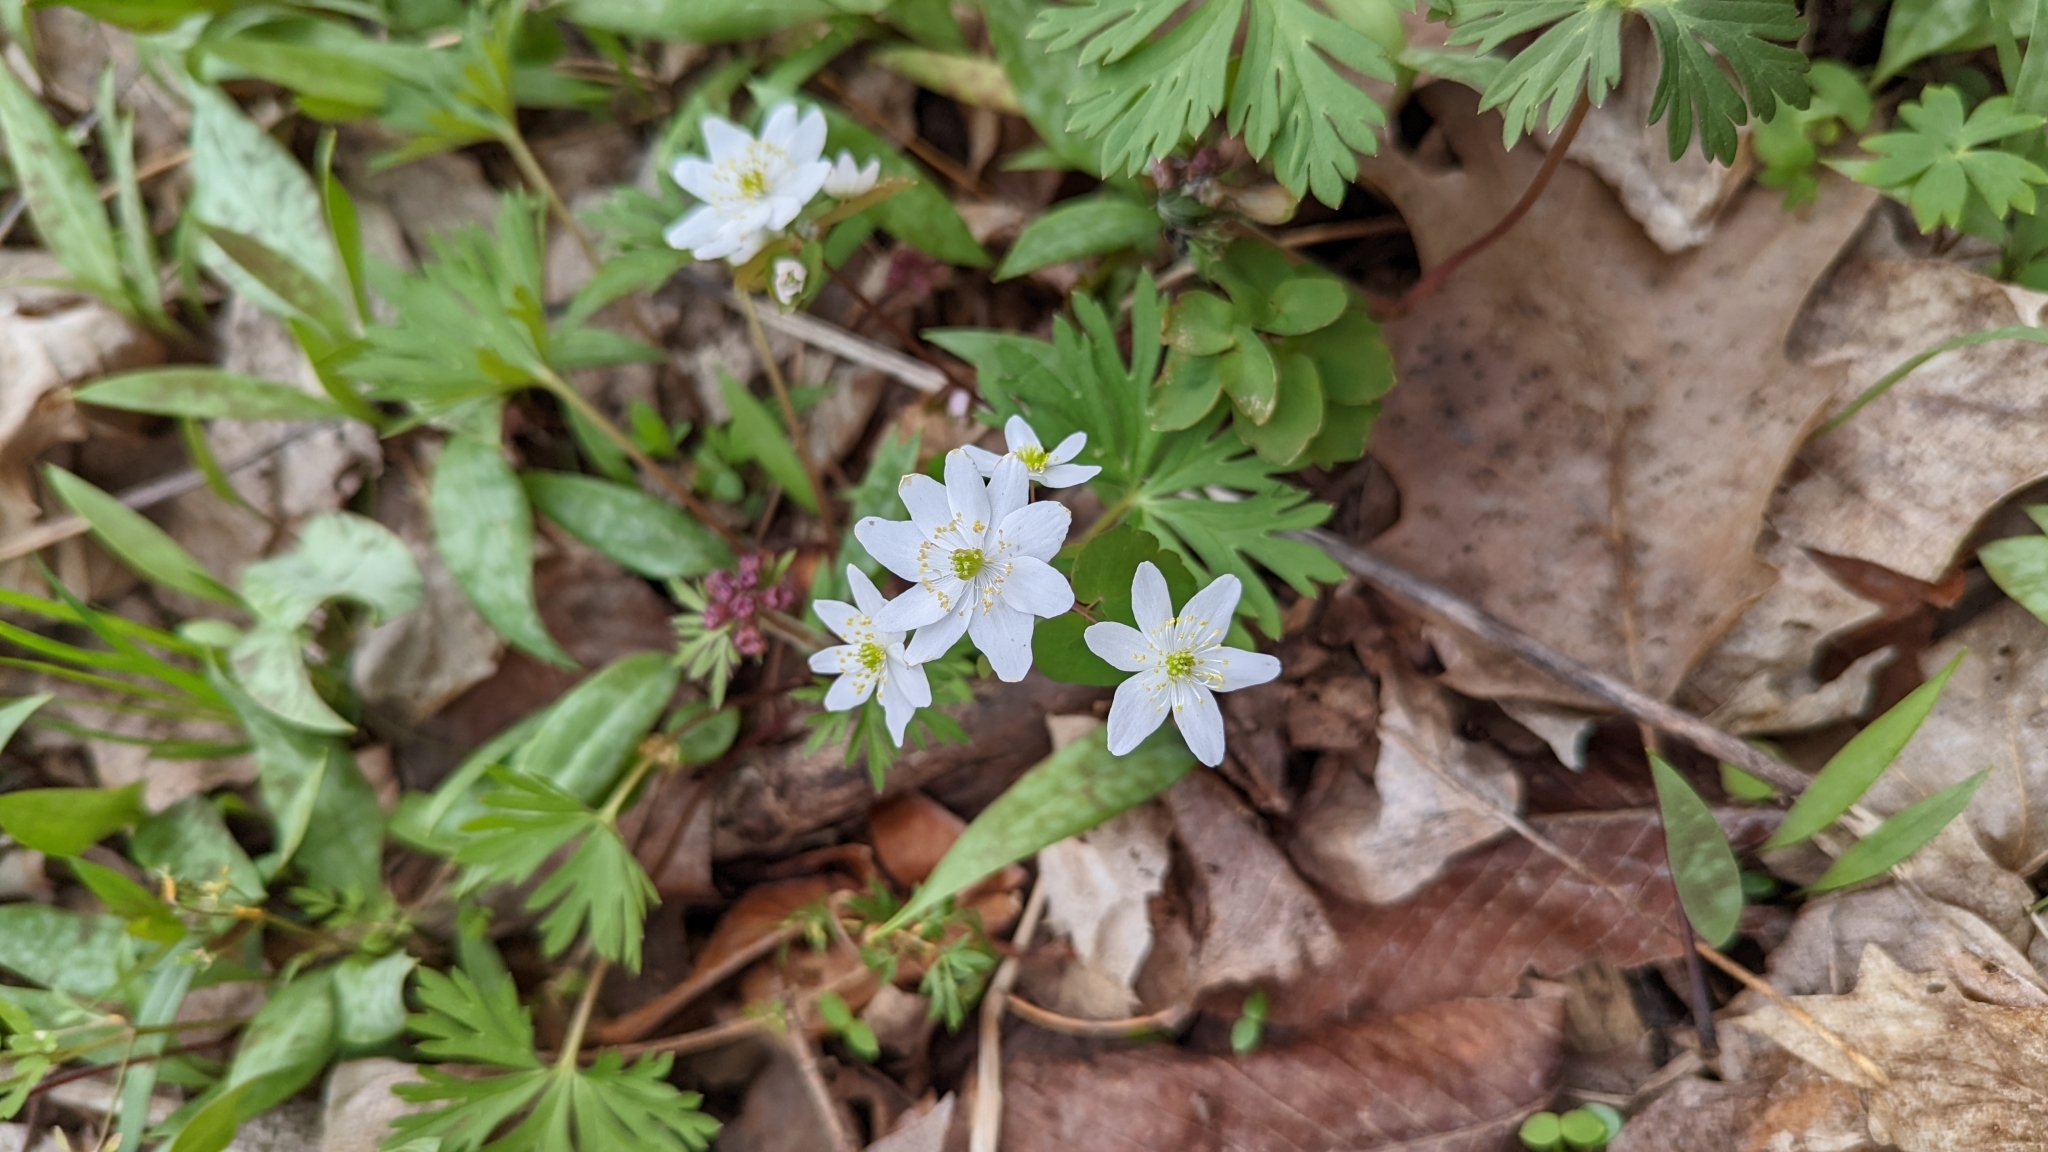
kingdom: Plantae
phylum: Tracheophyta
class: Magnoliopsida
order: Ranunculales
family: Ranunculaceae
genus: Thalictrum
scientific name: Thalictrum thalictroides
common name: Rue-anemone
